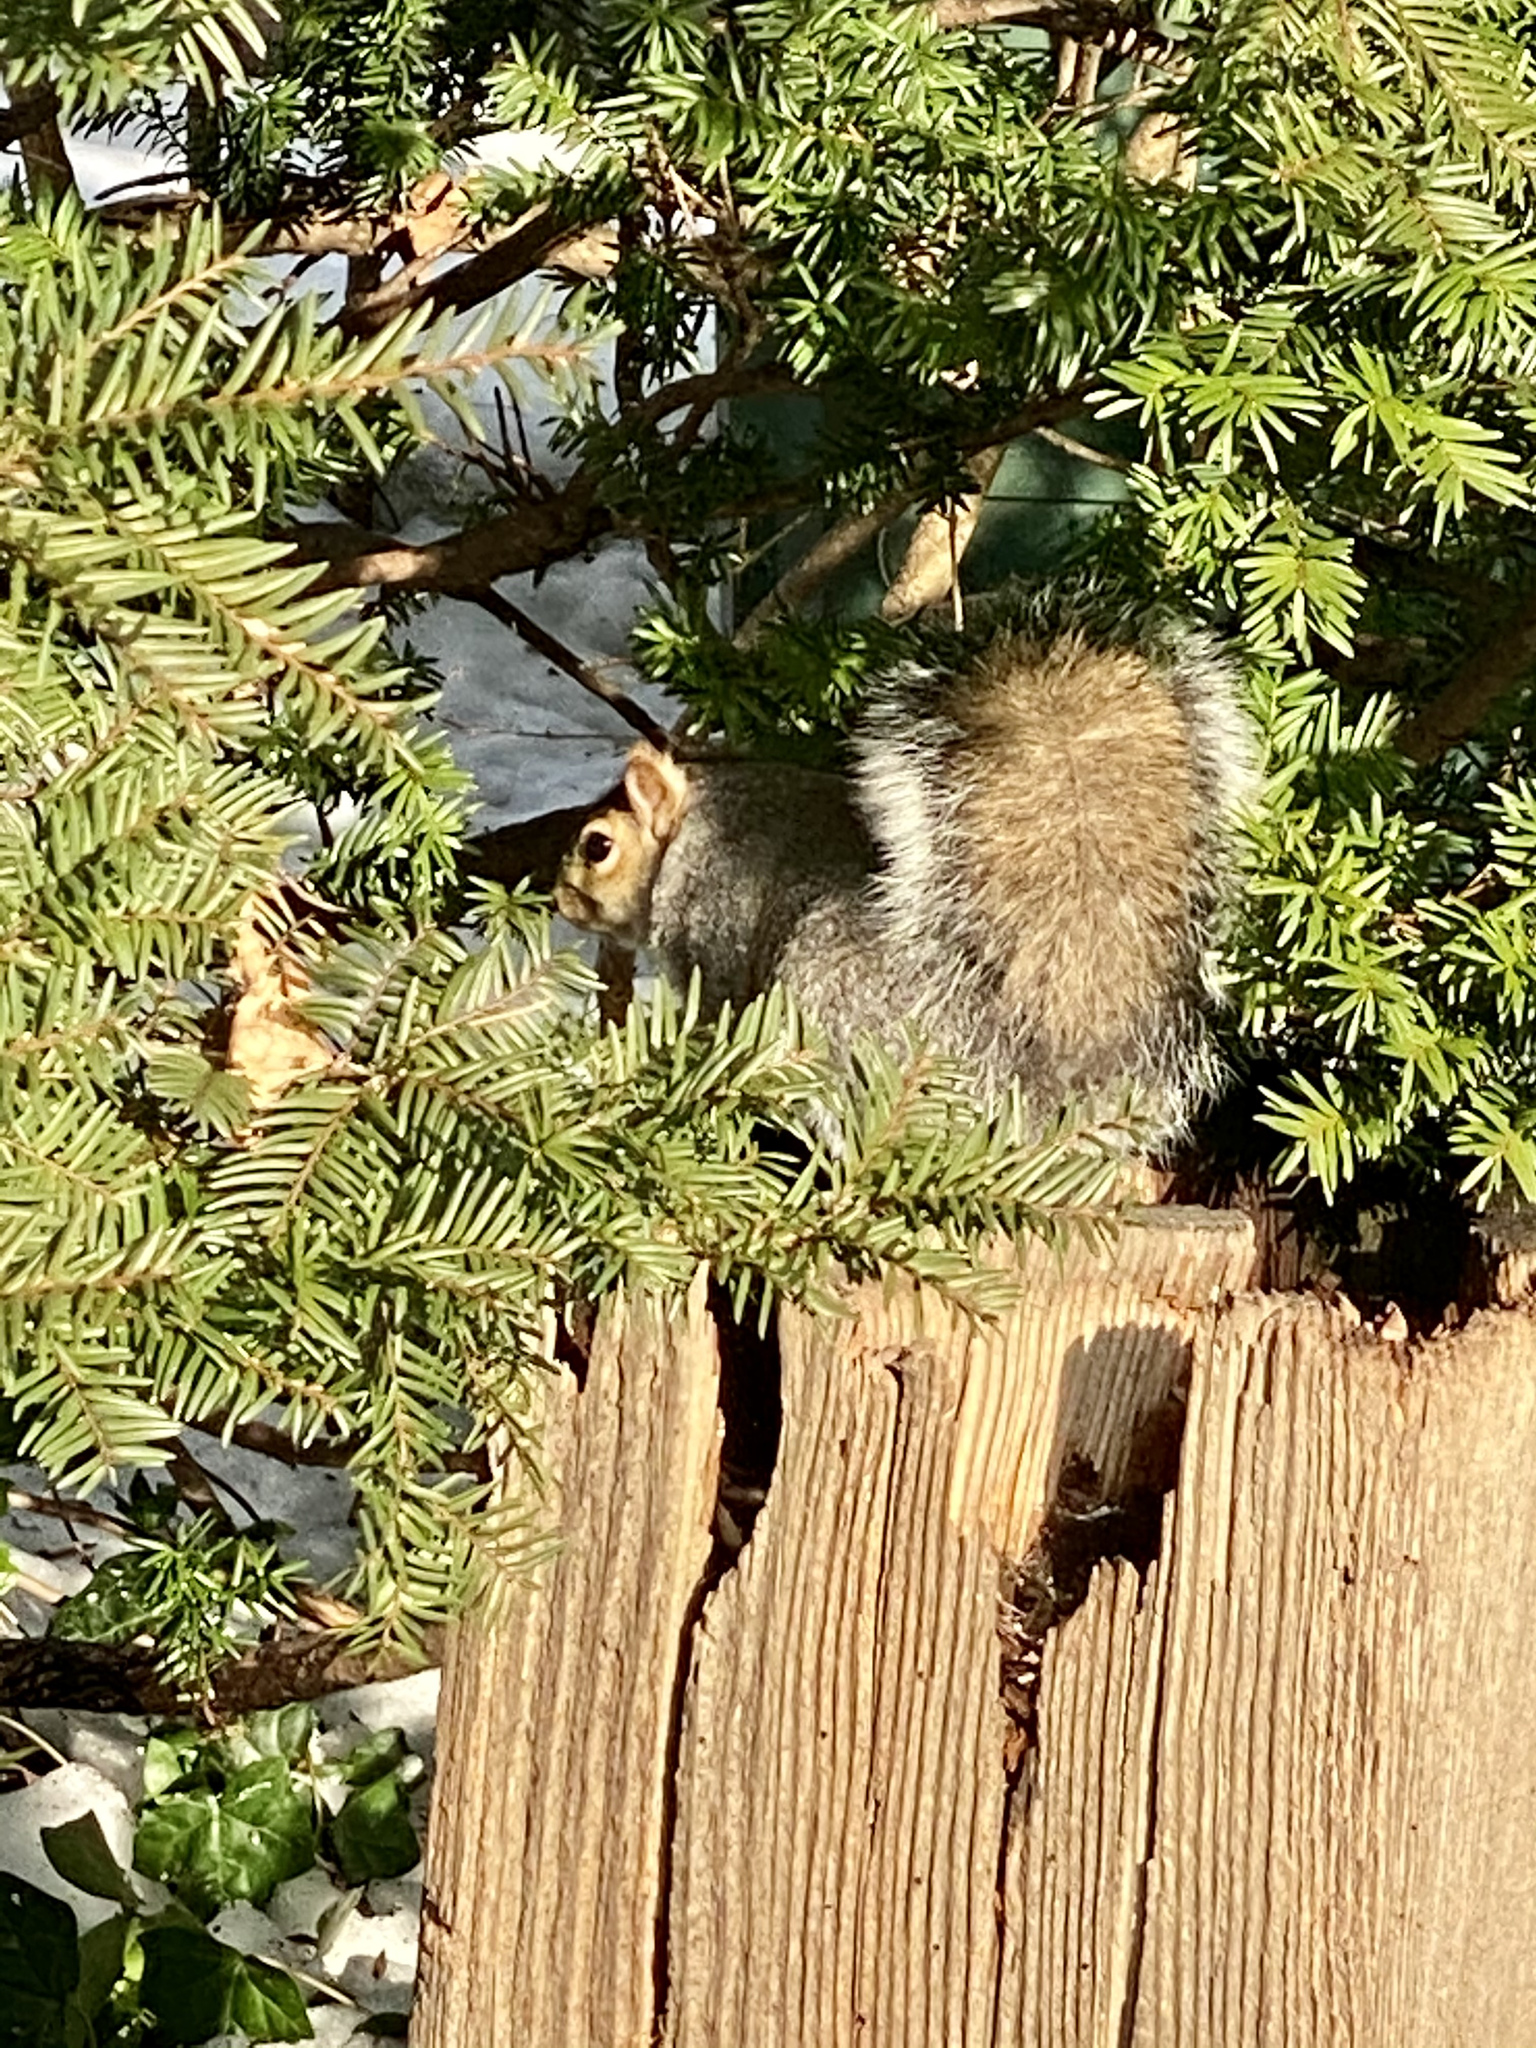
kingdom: Animalia
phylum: Chordata
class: Mammalia
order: Rodentia
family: Sciuridae
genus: Sciurus
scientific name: Sciurus carolinensis
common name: Eastern gray squirrel
